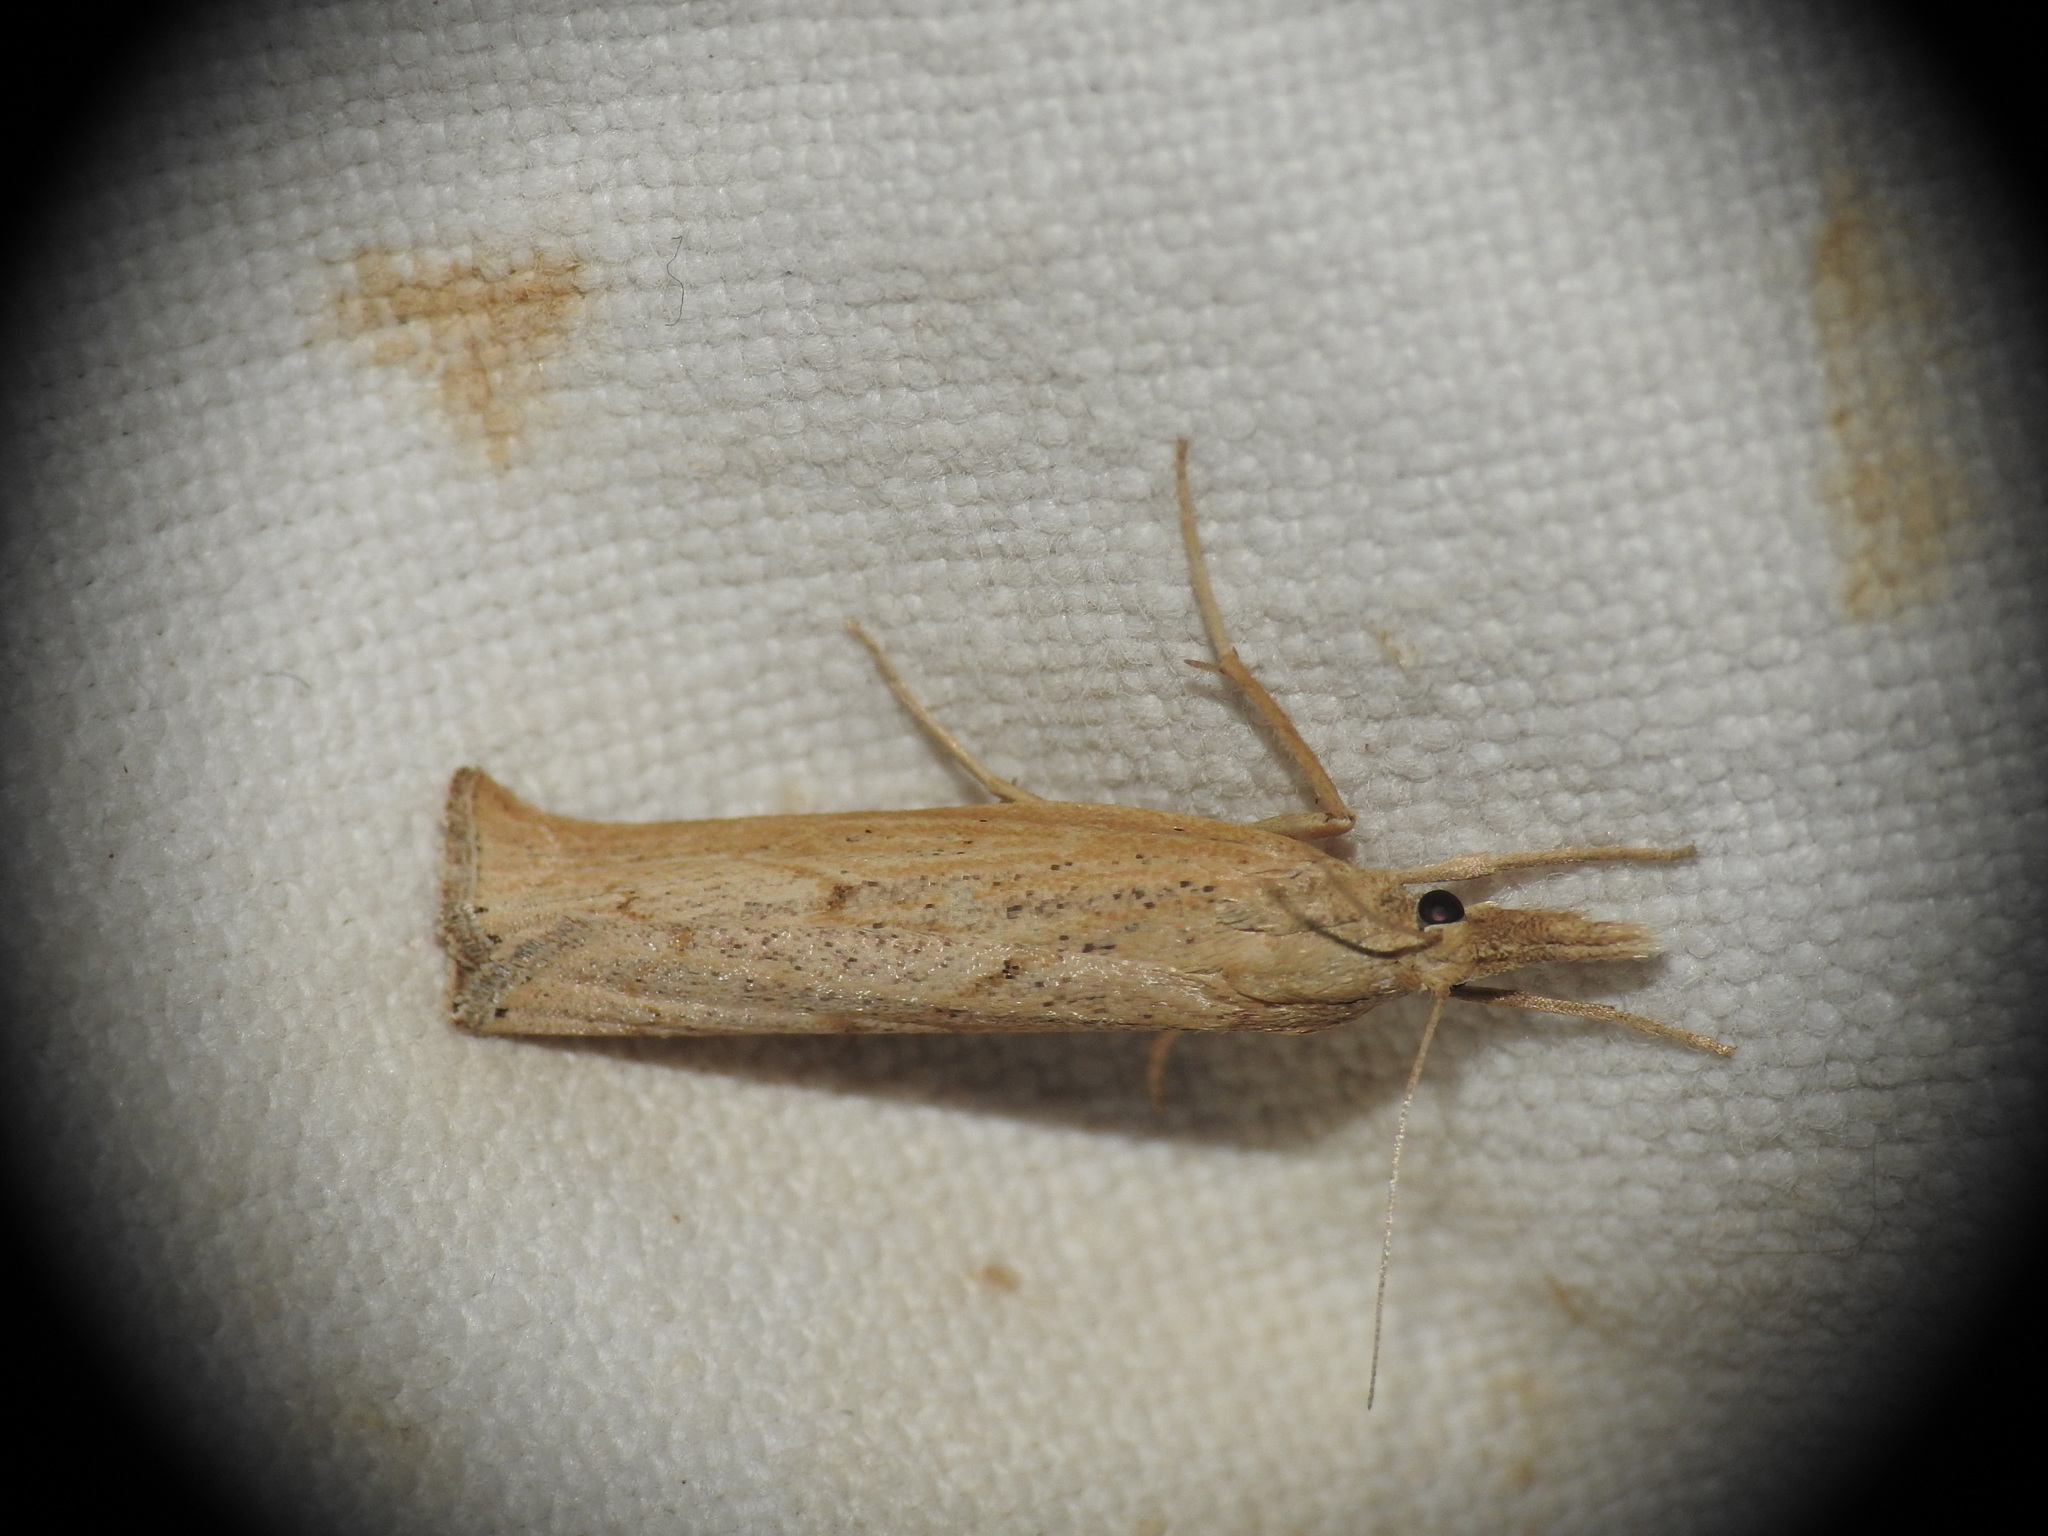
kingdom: Animalia
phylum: Arthropoda
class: Insecta
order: Lepidoptera
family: Crambidae
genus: Pediasia
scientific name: Pediasia contaminella
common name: Waste grass-veneer
